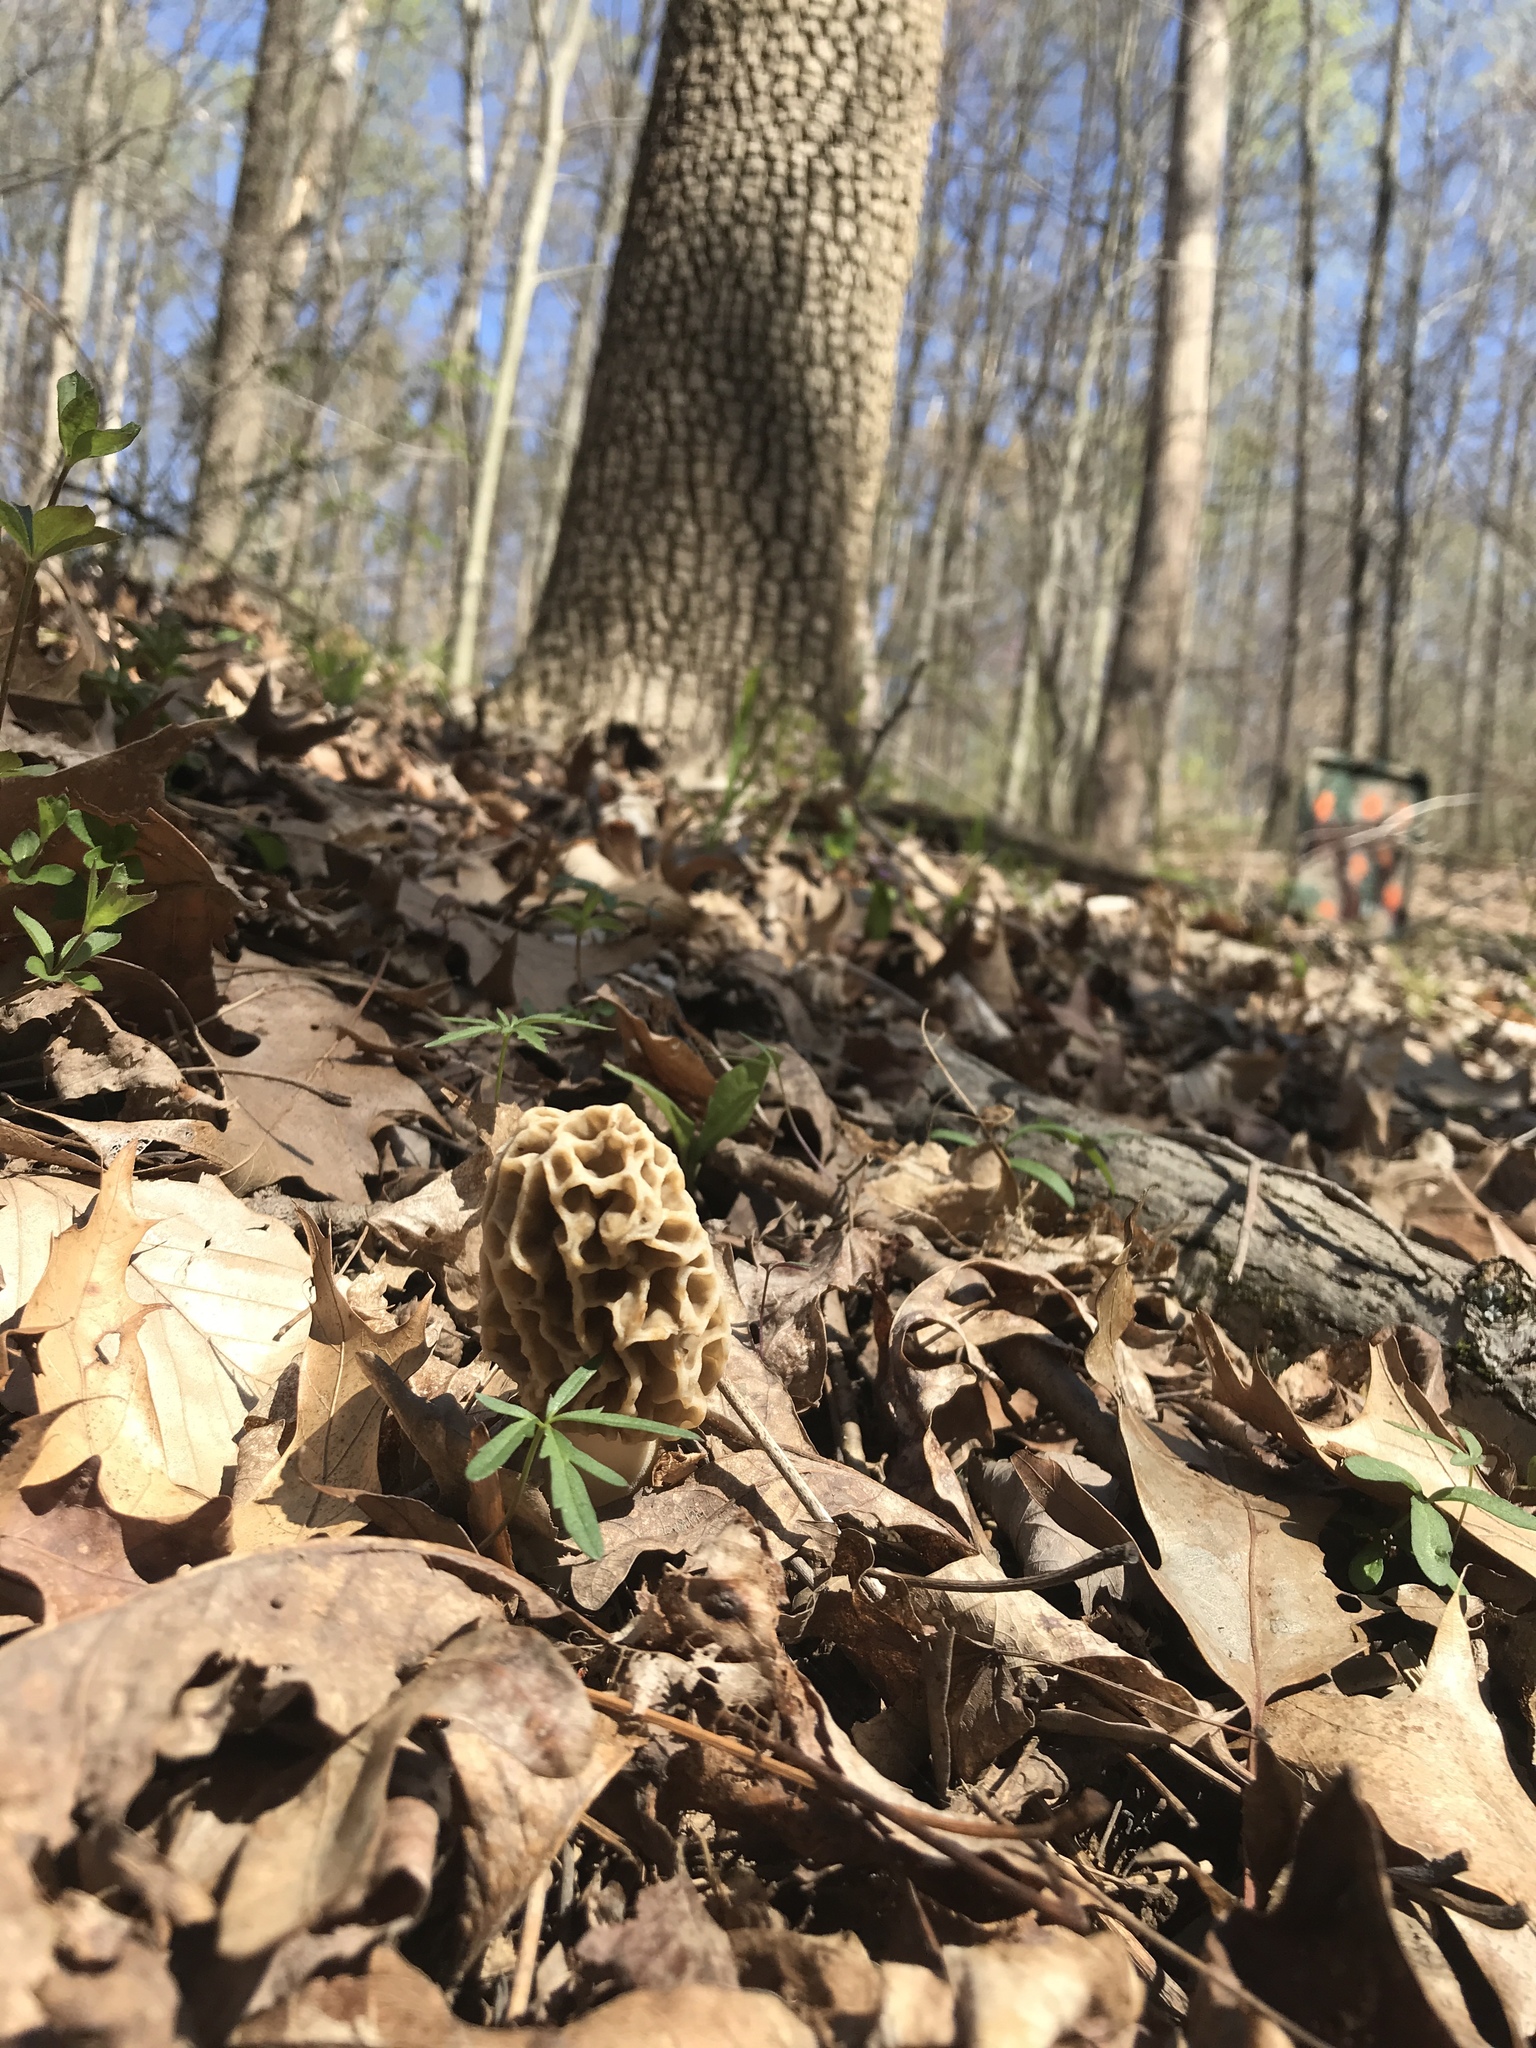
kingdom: Fungi
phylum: Ascomycota
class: Pezizomycetes
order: Pezizales
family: Morchellaceae
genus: Morchella
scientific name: Morchella americana
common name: White morel
